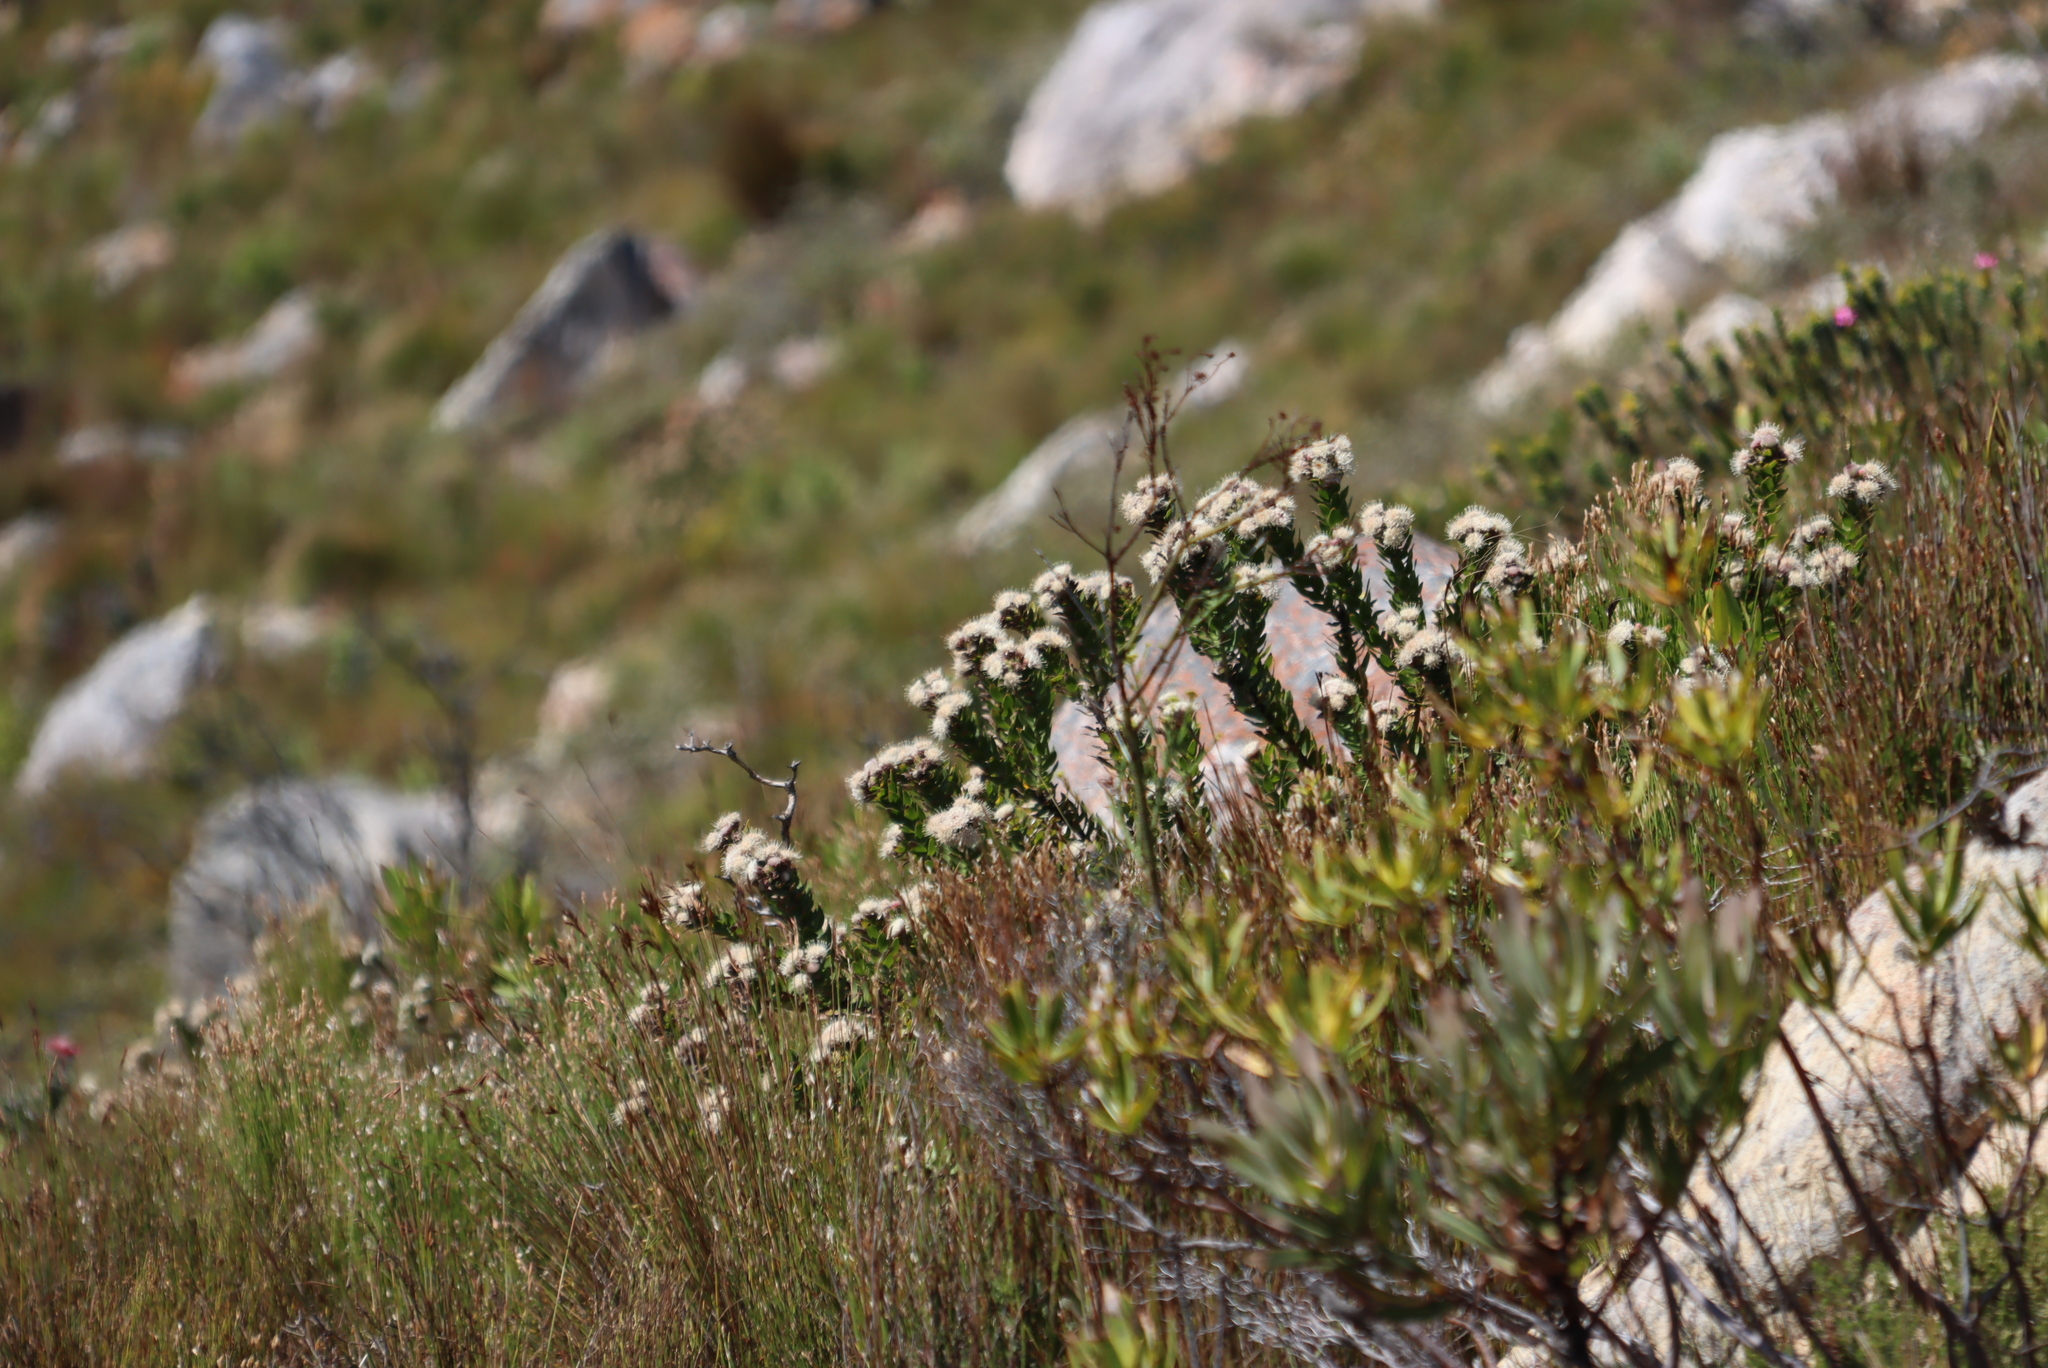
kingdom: Plantae
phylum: Tracheophyta
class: Magnoliopsida
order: Proteales
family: Proteaceae
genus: Leucospermum
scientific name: Leucospermum bolusii
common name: Gordon's bay pincushion
